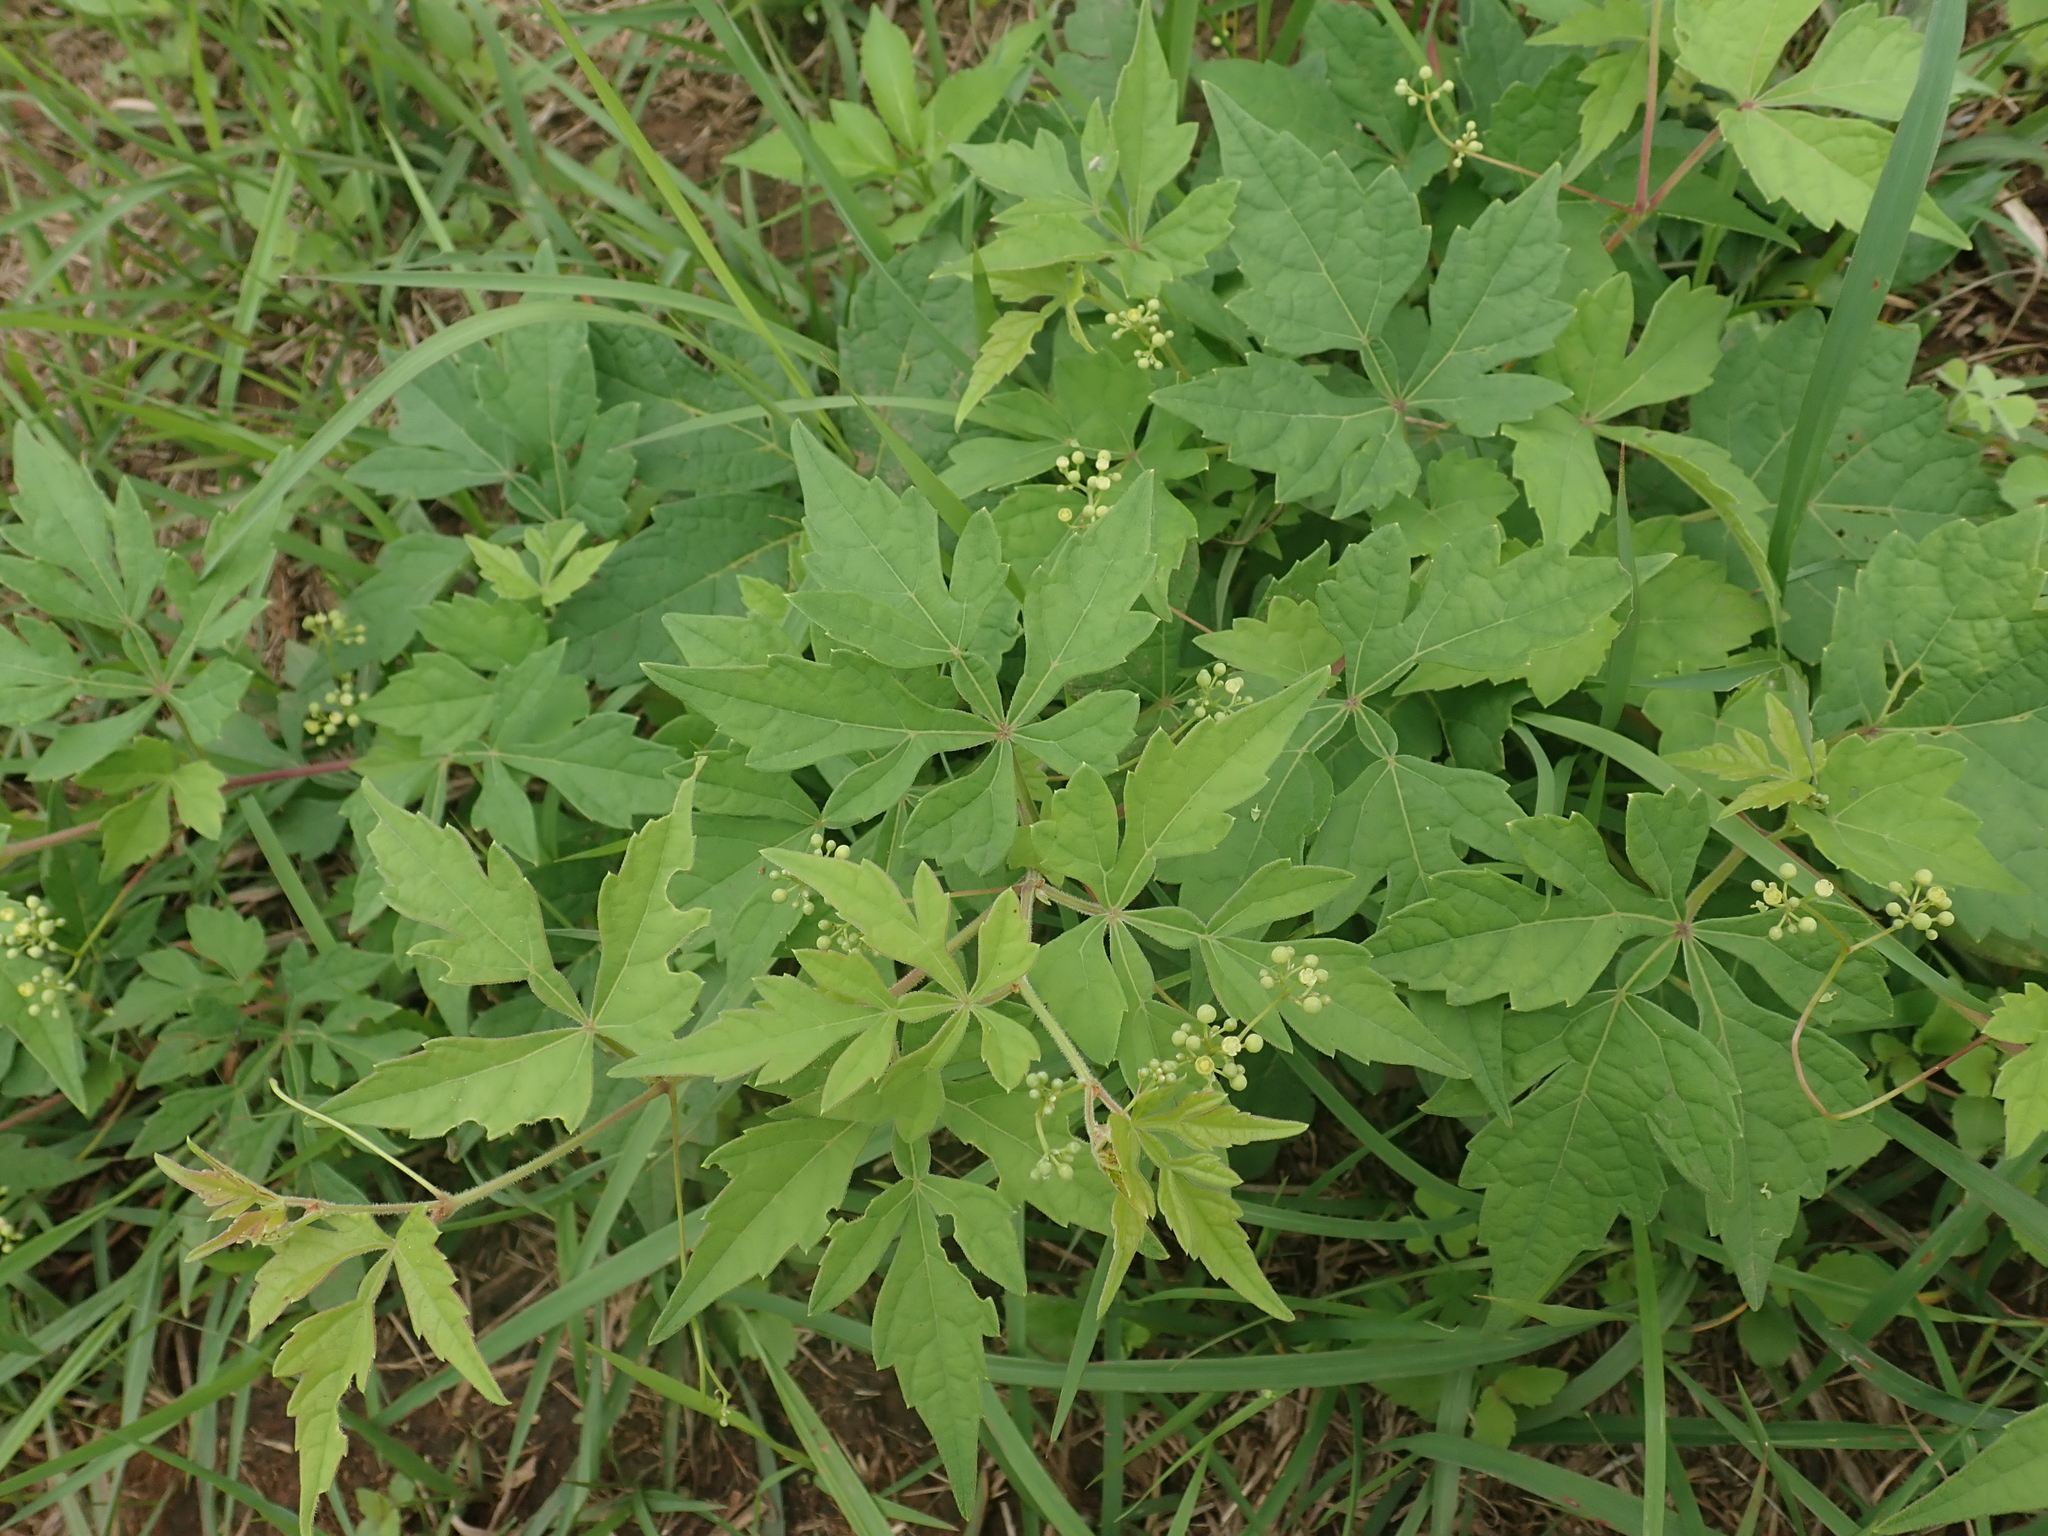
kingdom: Plantae
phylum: Tracheophyta
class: Magnoliopsida
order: Vitales
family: Vitaceae
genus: Ampelopsis
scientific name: Ampelopsis japonica
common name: Japanese peppervine
